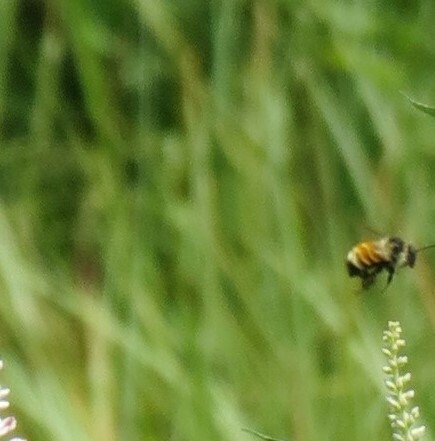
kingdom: Animalia
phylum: Arthropoda
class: Insecta
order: Hymenoptera
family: Apidae
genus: Bombus
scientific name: Bombus ternarius
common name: Tri-colored bumble bee
